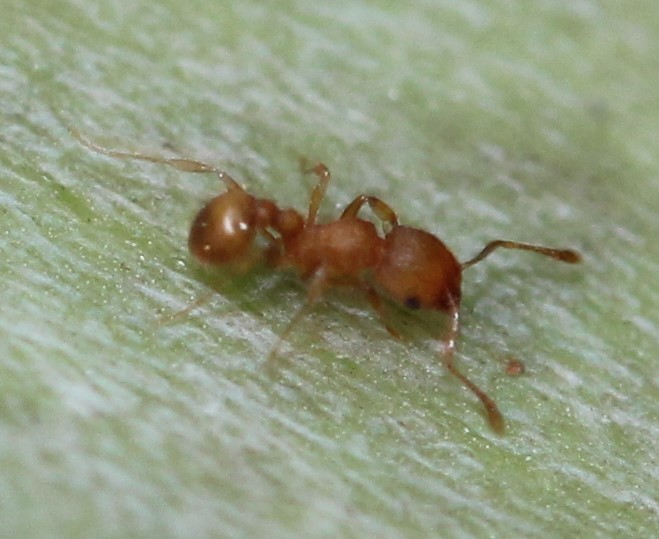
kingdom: Animalia
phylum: Arthropoda
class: Insecta
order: Hymenoptera
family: Formicidae
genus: Wasmannia
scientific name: Wasmannia auropunctata
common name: Little fire ant
